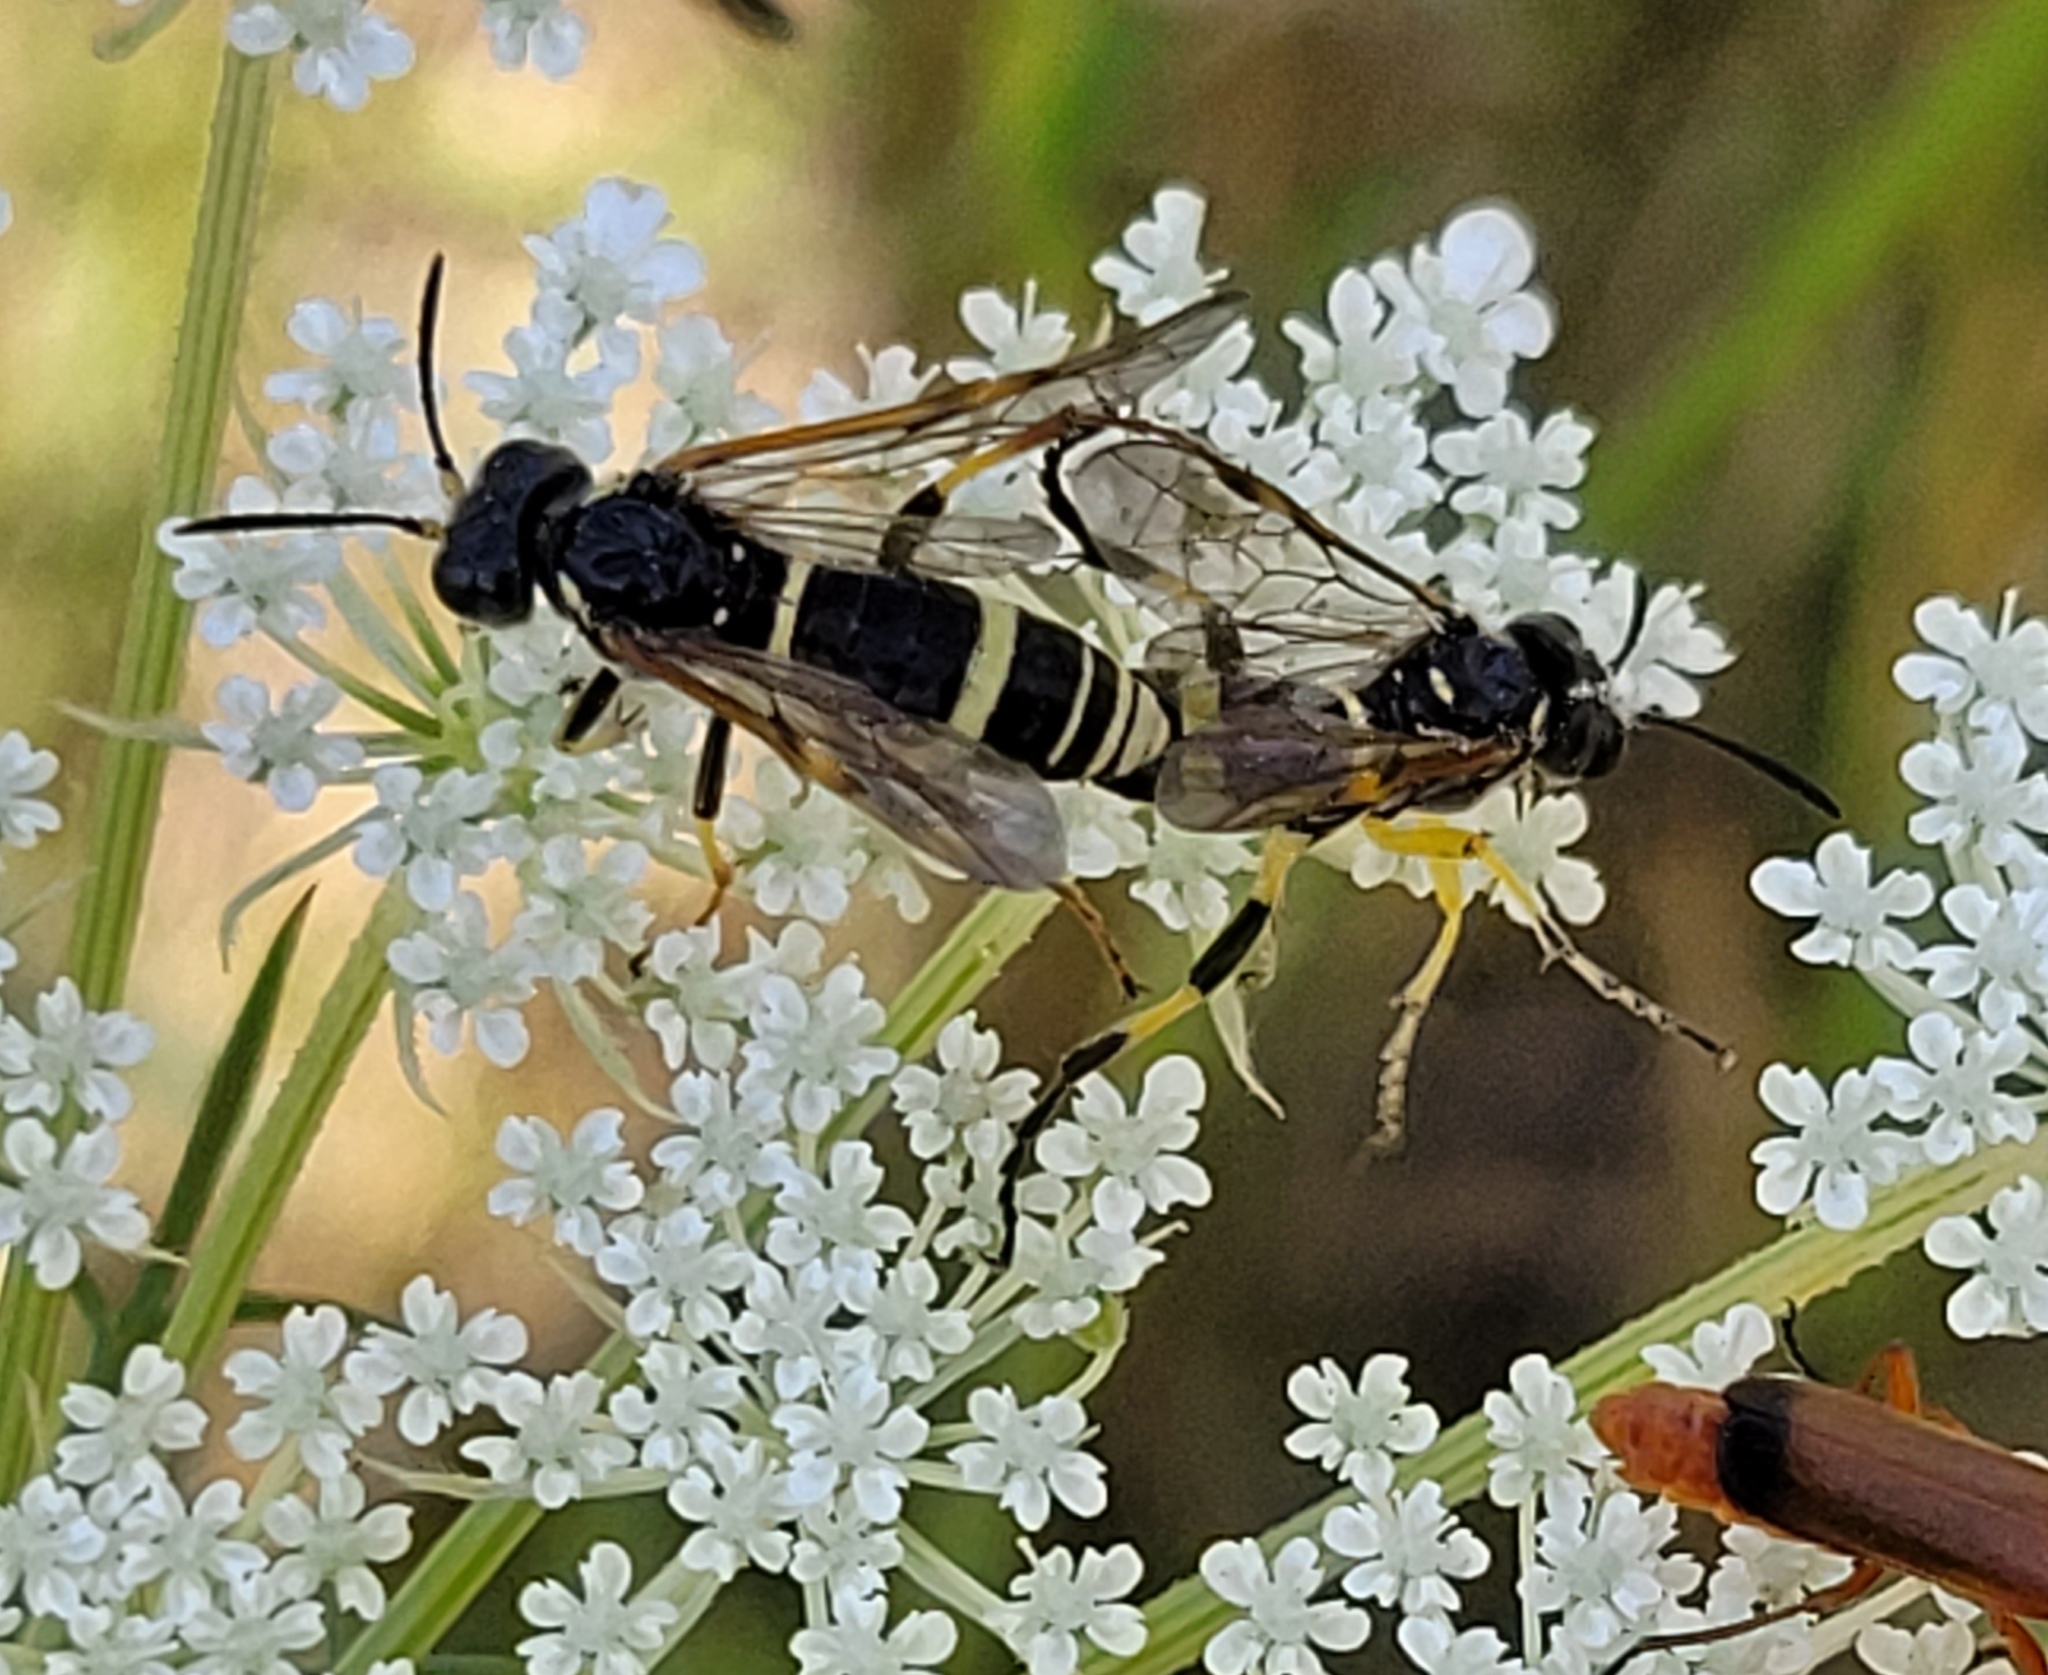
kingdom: Animalia
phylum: Arthropoda
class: Insecta
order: Hymenoptera
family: Tenthredinidae
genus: Tenthredo
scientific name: Tenthredo amoena
